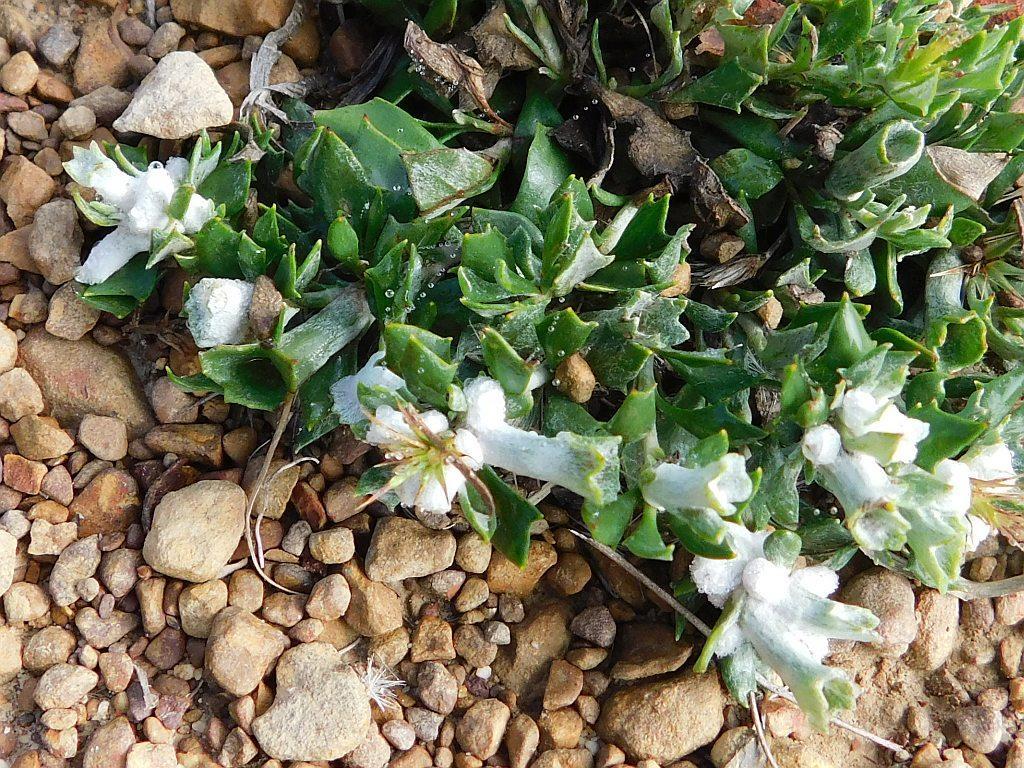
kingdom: Plantae
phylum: Tracheophyta
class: Magnoliopsida
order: Asterales
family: Asteraceae
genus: Macledium
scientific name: Macledium spinosum
